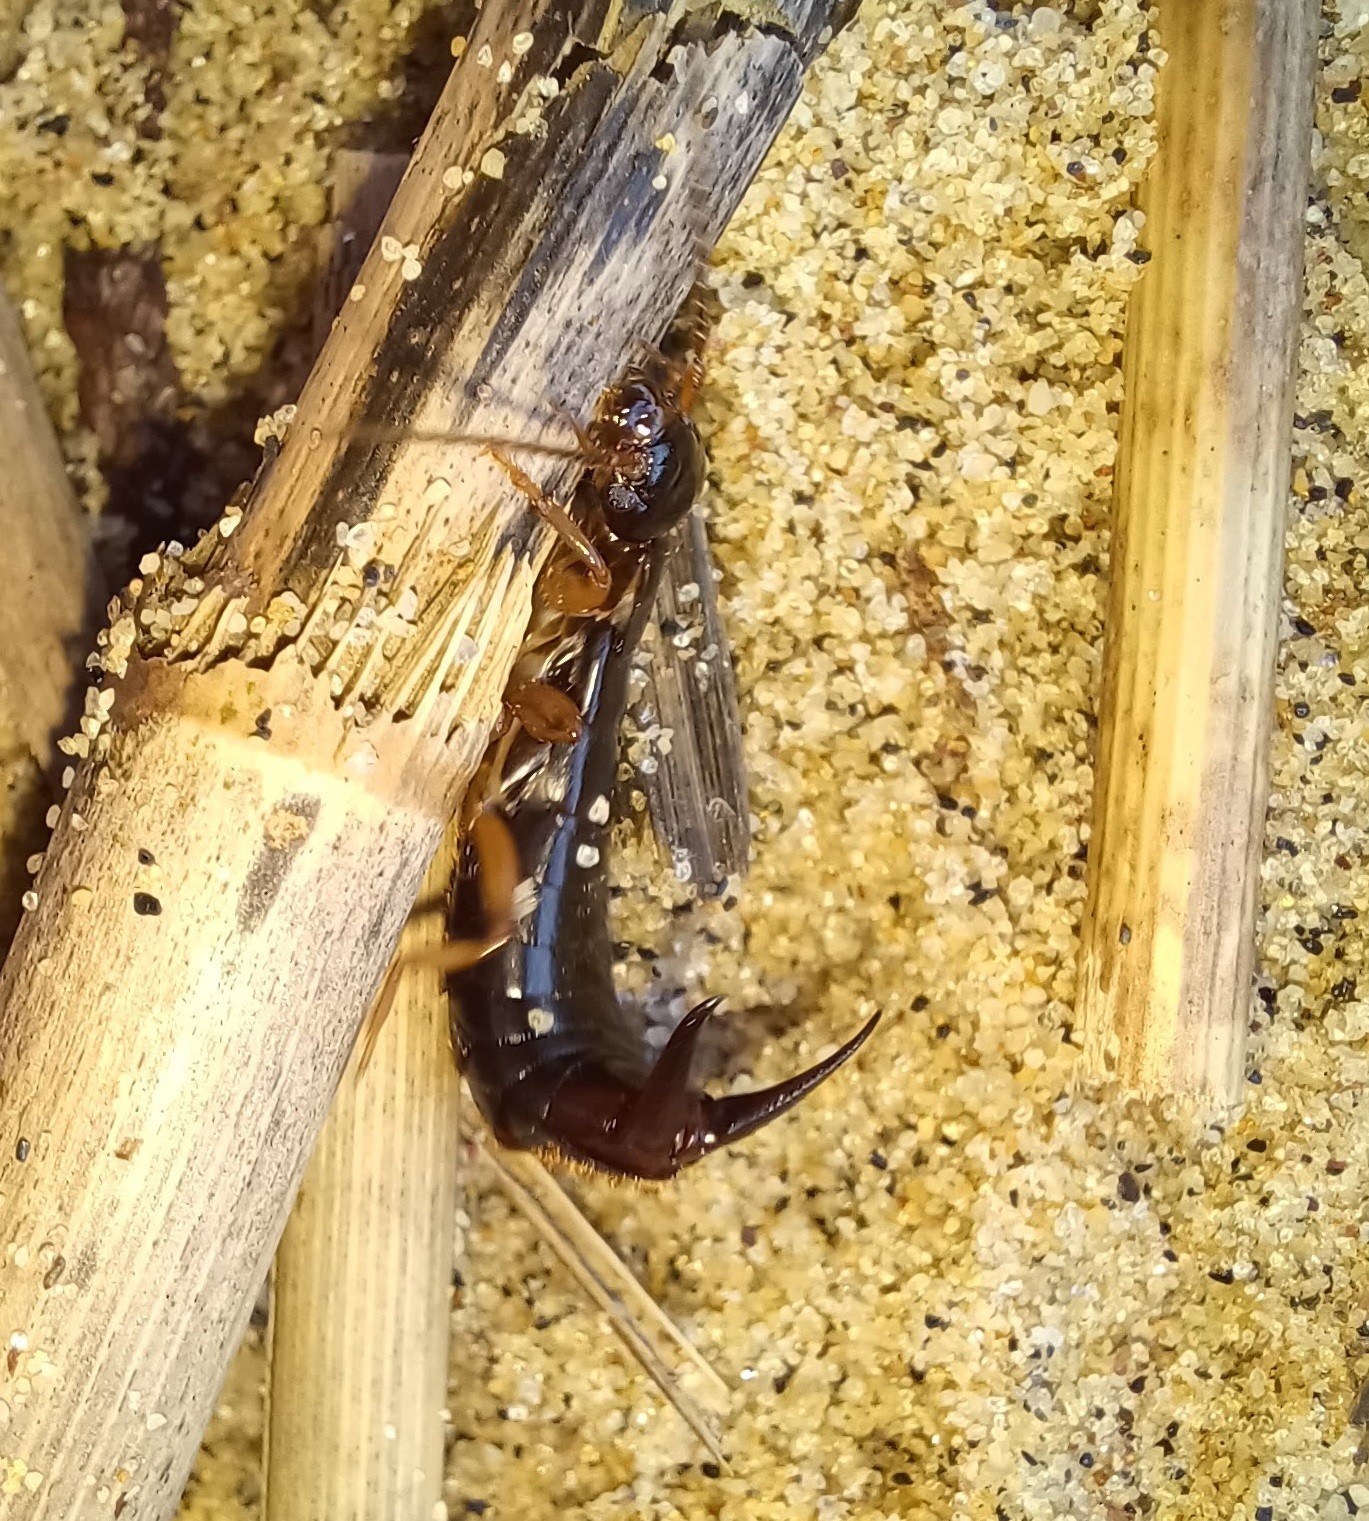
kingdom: Animalia
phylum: Arthropoda
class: Insecta
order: Dermaptera
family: Anisolabididae
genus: Anisolabis
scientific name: Anisolabis maritima
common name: Maritime earwig
